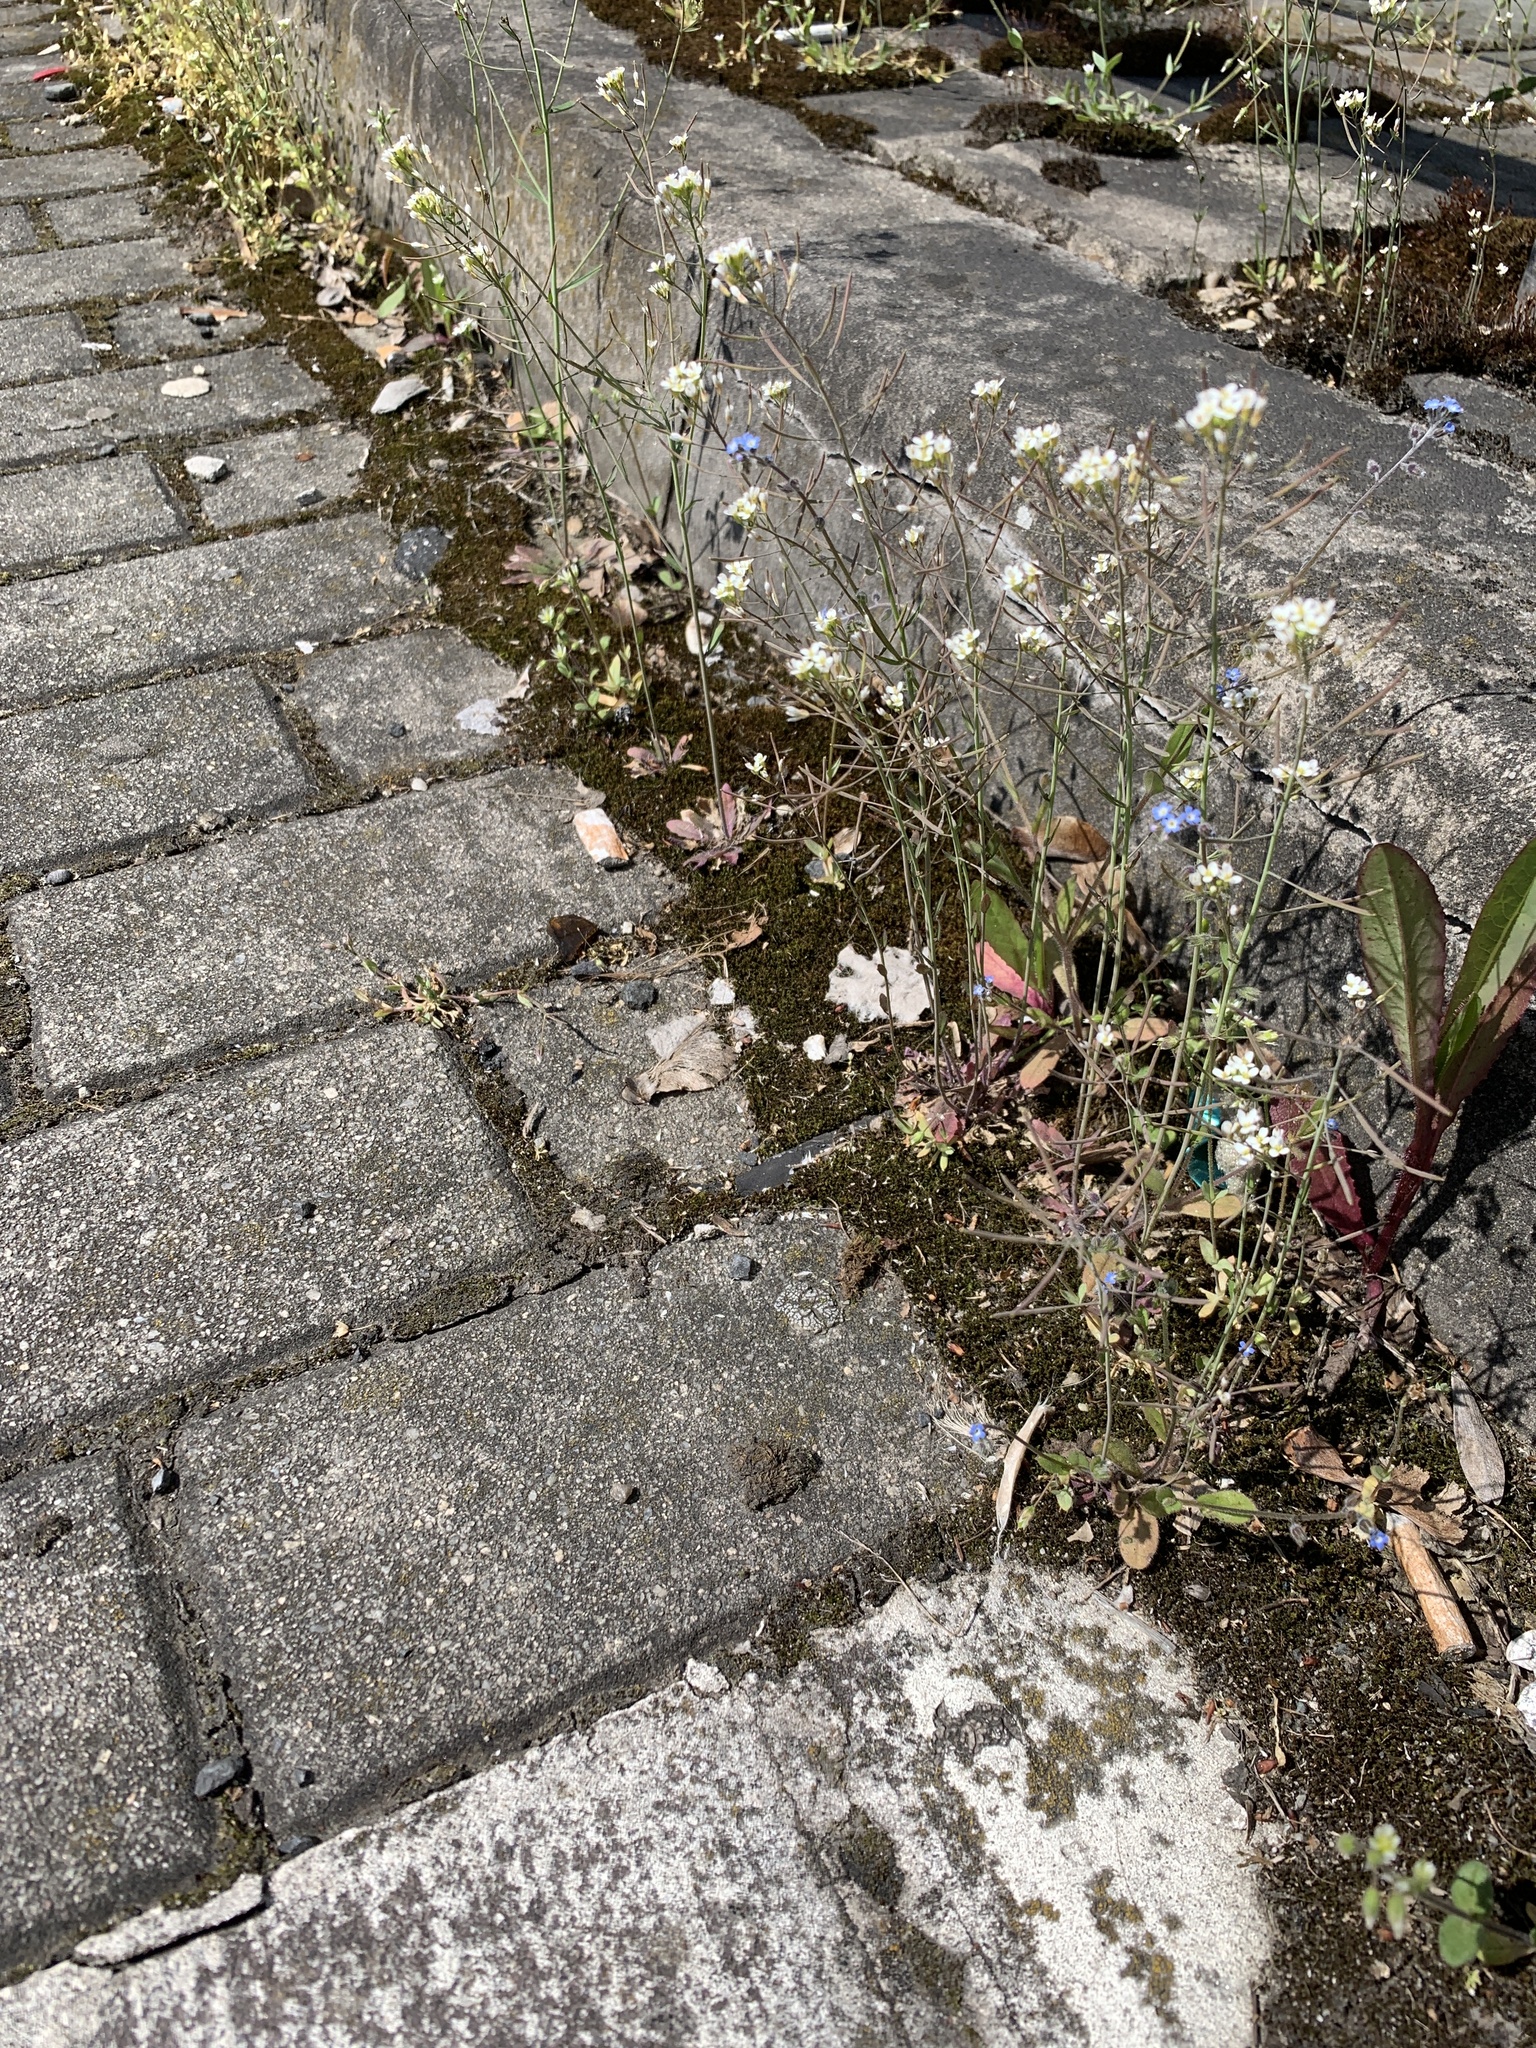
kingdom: Plantae
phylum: Tracheophyta
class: Magnoliopsida
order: Brassicales
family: Brassicaceae
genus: Arabidopsis
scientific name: Arabidopsis thaliana
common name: Thale cress
